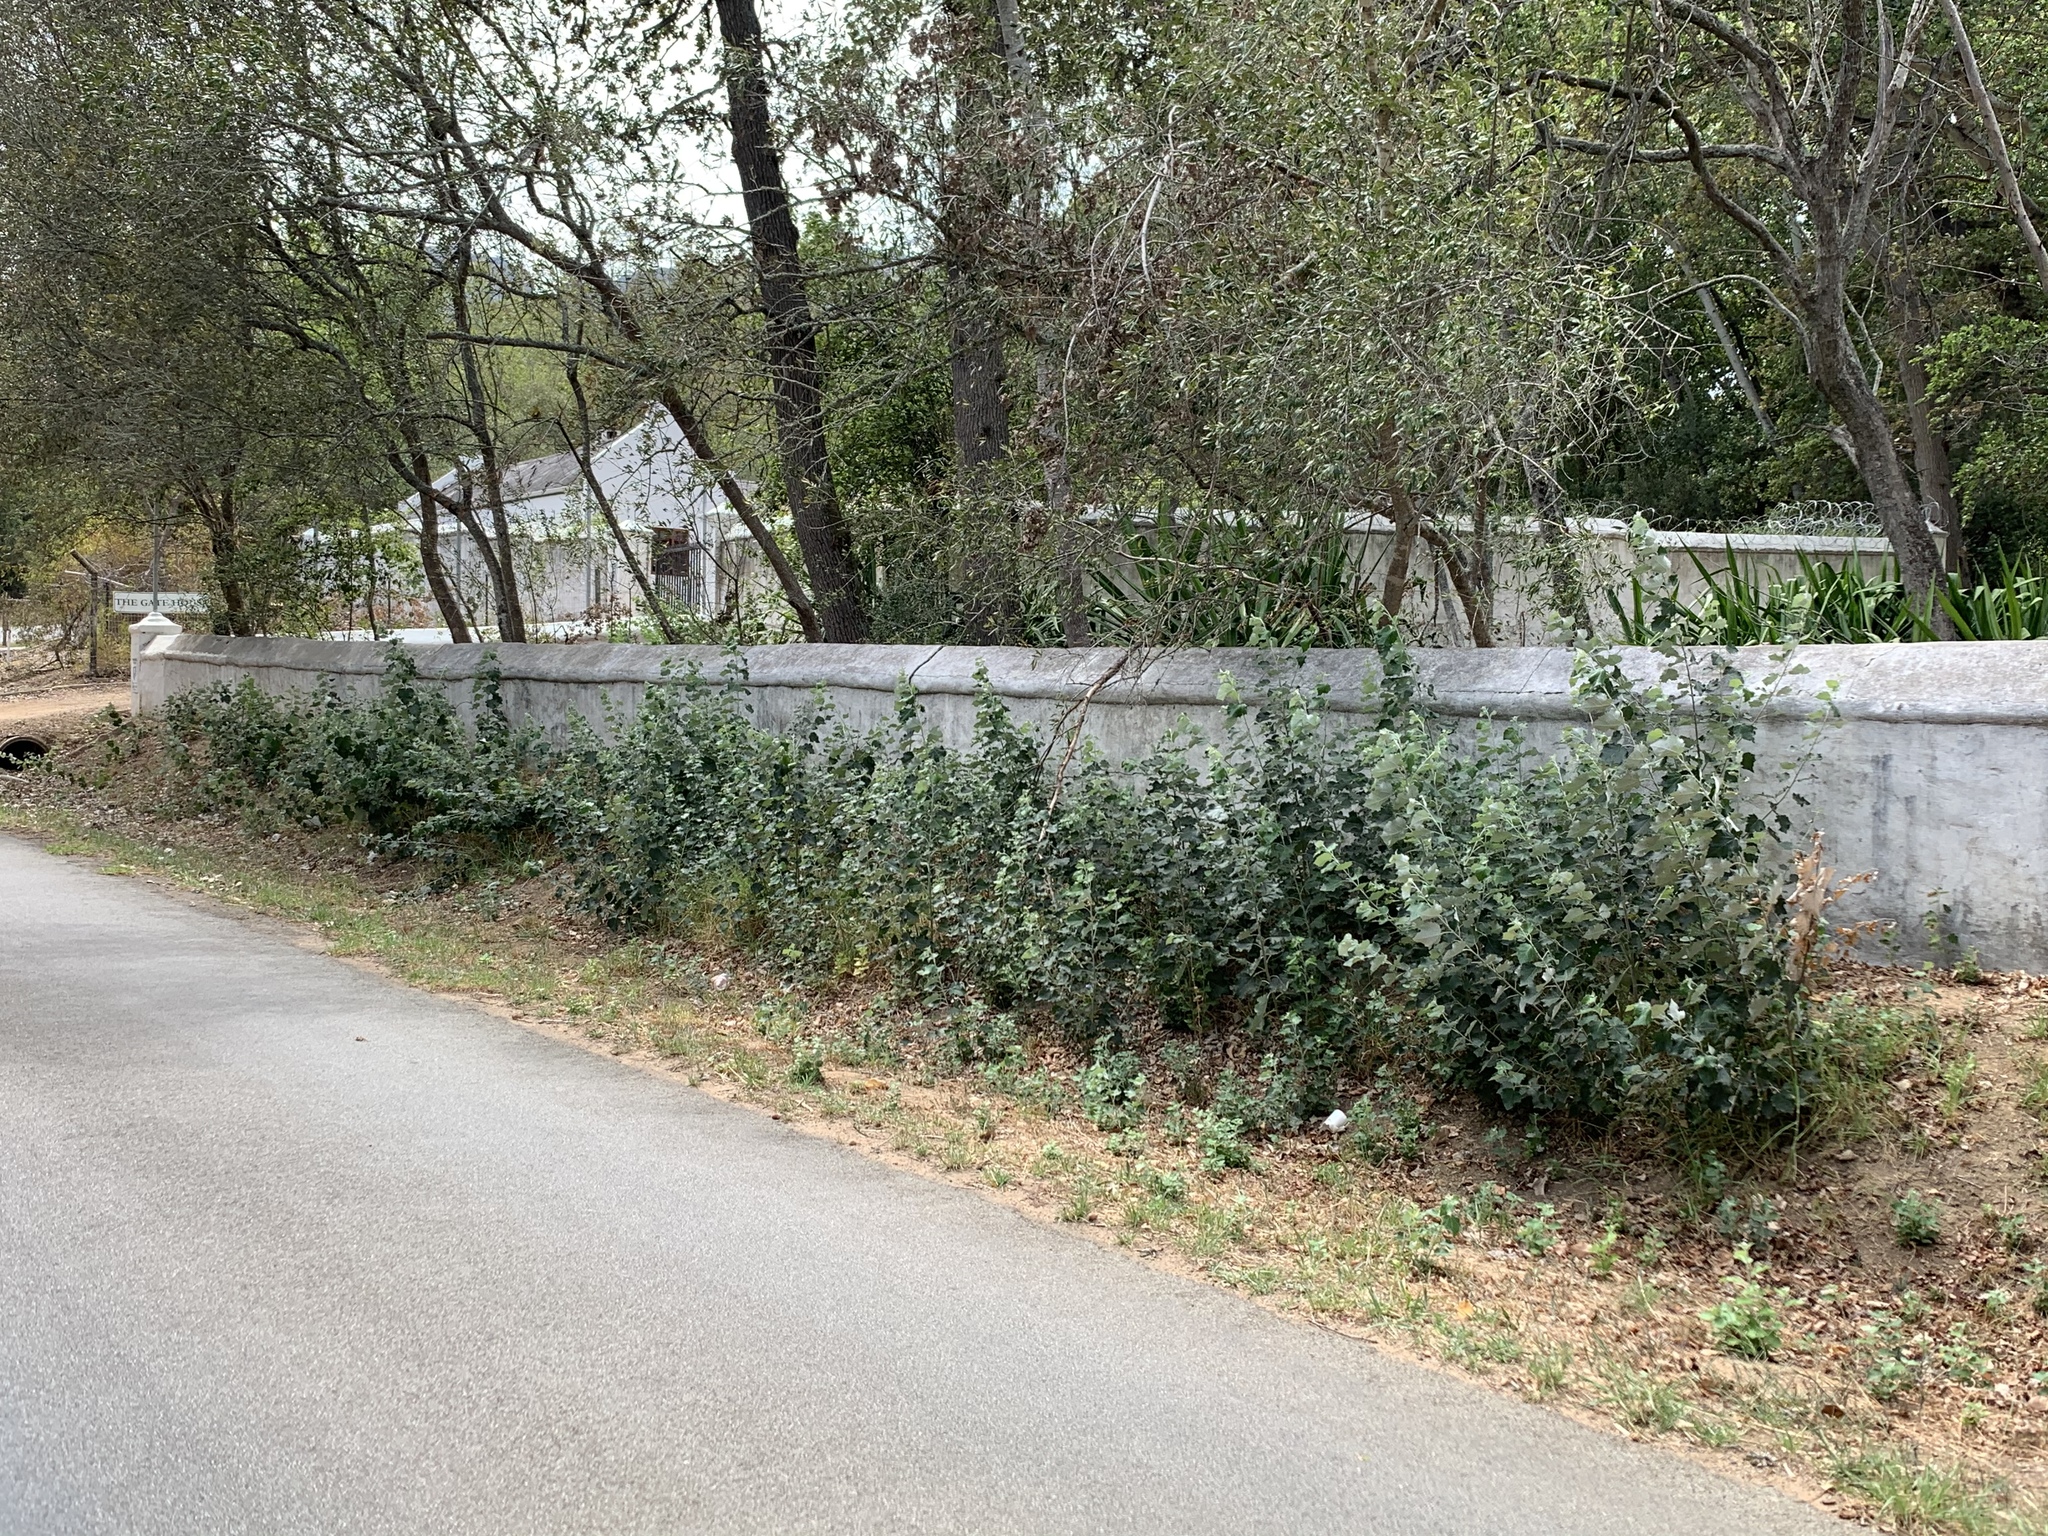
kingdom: Plantae
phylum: Tracheophyta
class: Magnoliopsida
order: Malpighiales
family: Salicaceae
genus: Populus
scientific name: Populus canescens
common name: Gray poplar
